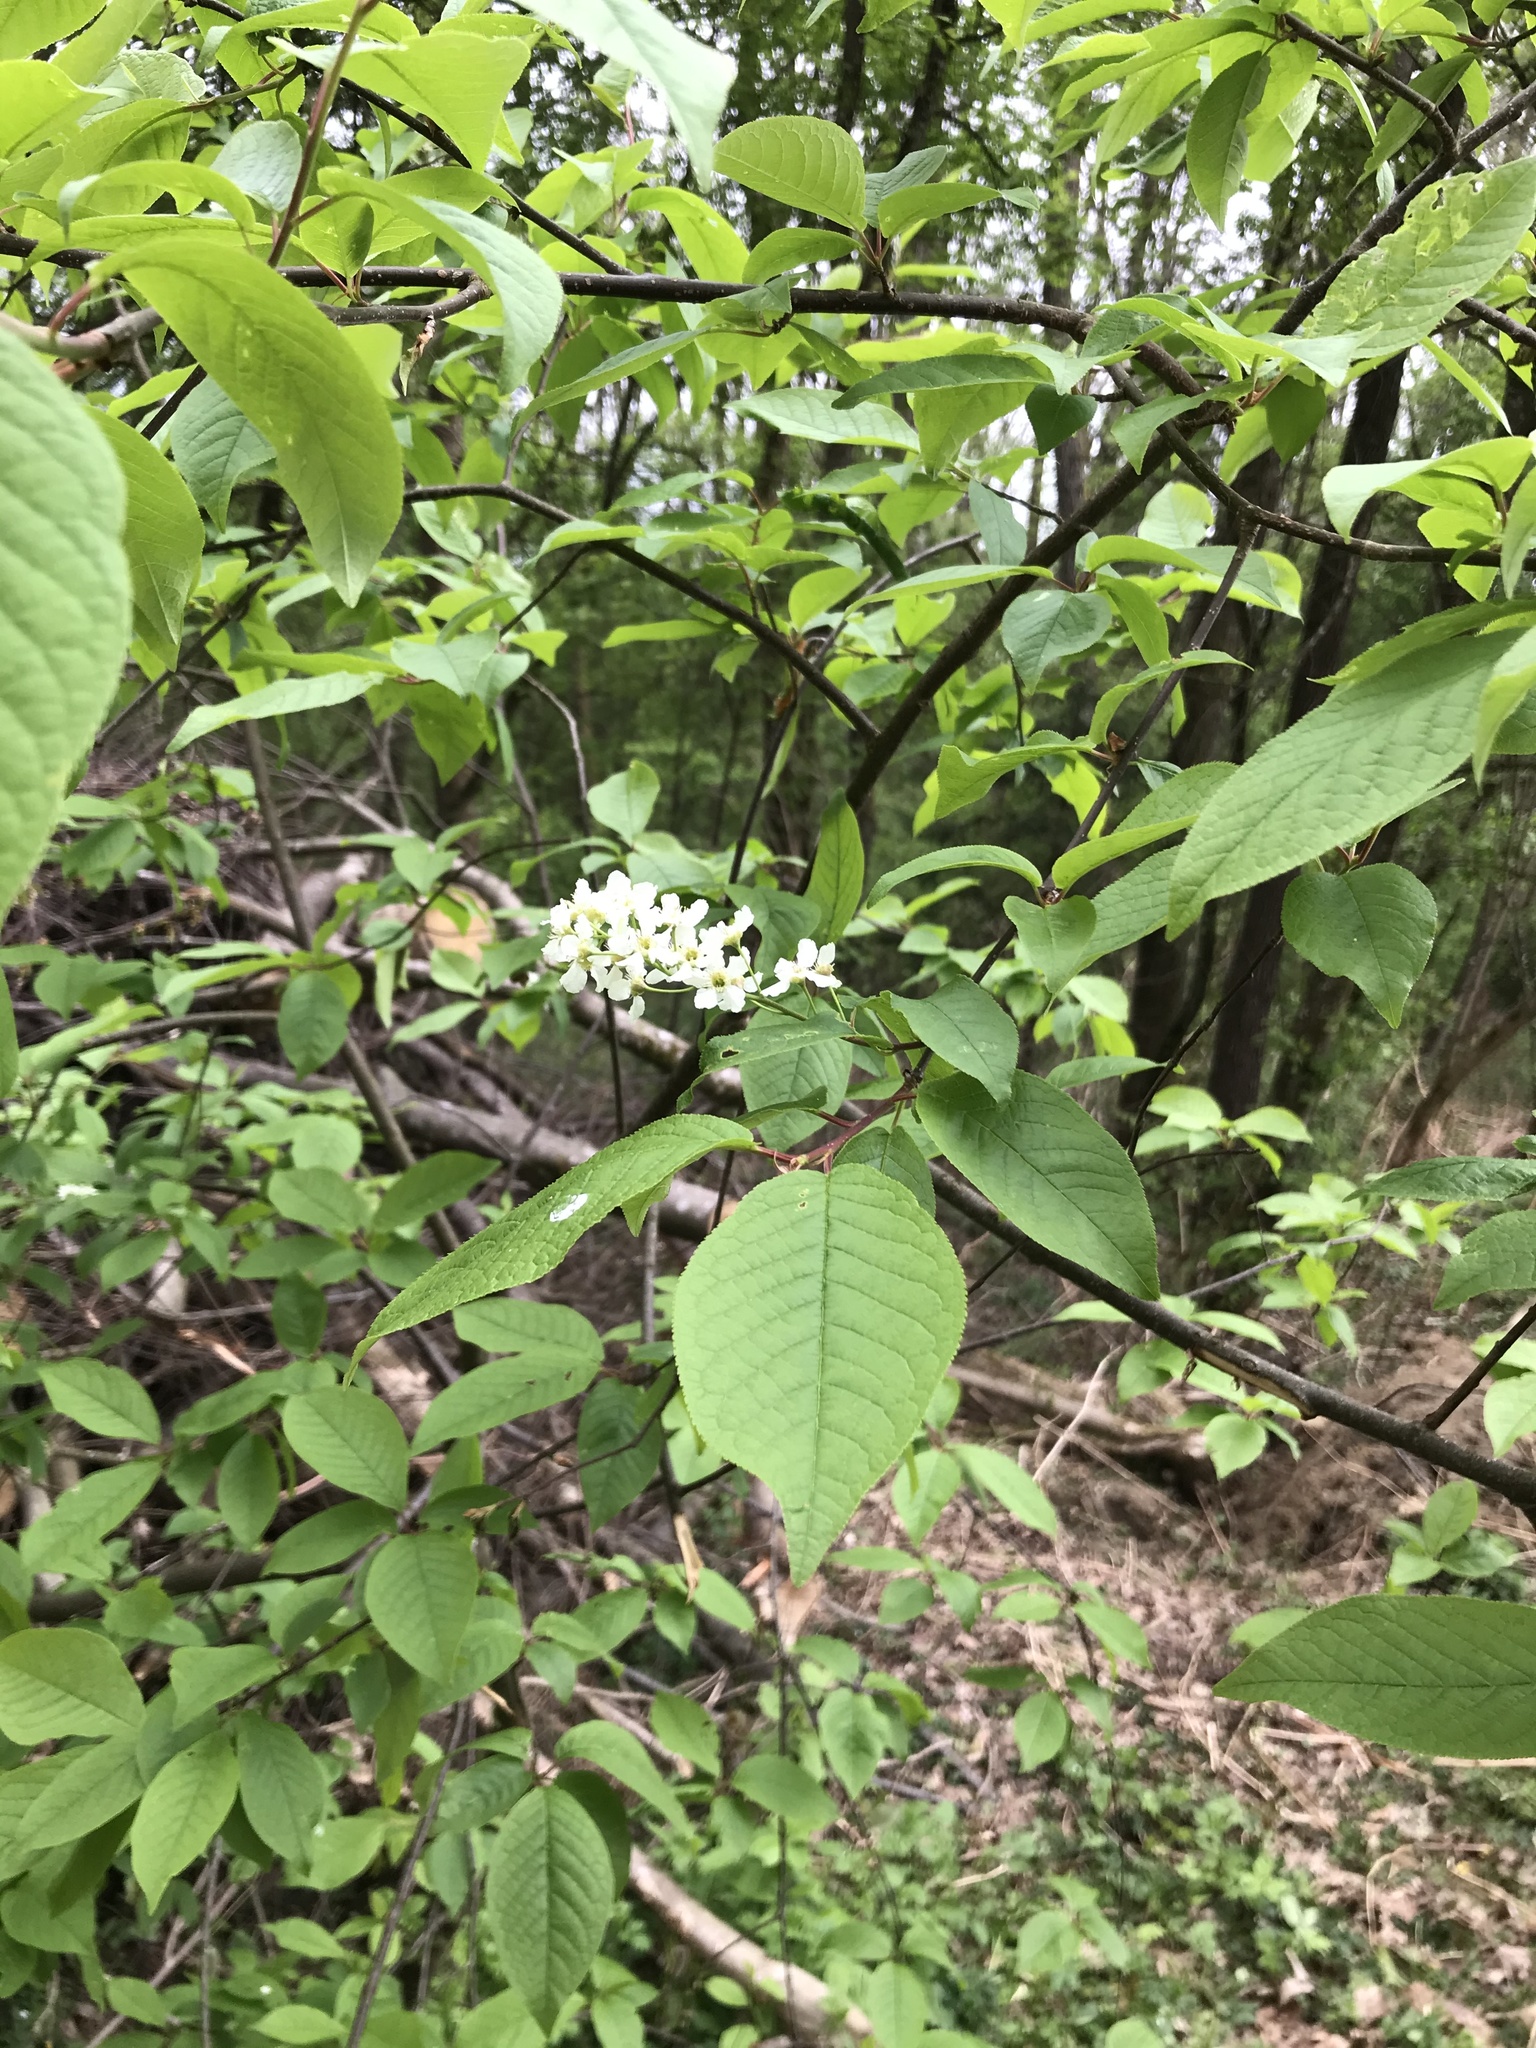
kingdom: Plantae
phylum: Tracheophyta
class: Magnoliopsida
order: Rosales
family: Rosaceae
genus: Prunus
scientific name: Prunus padus
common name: Bird cherry
